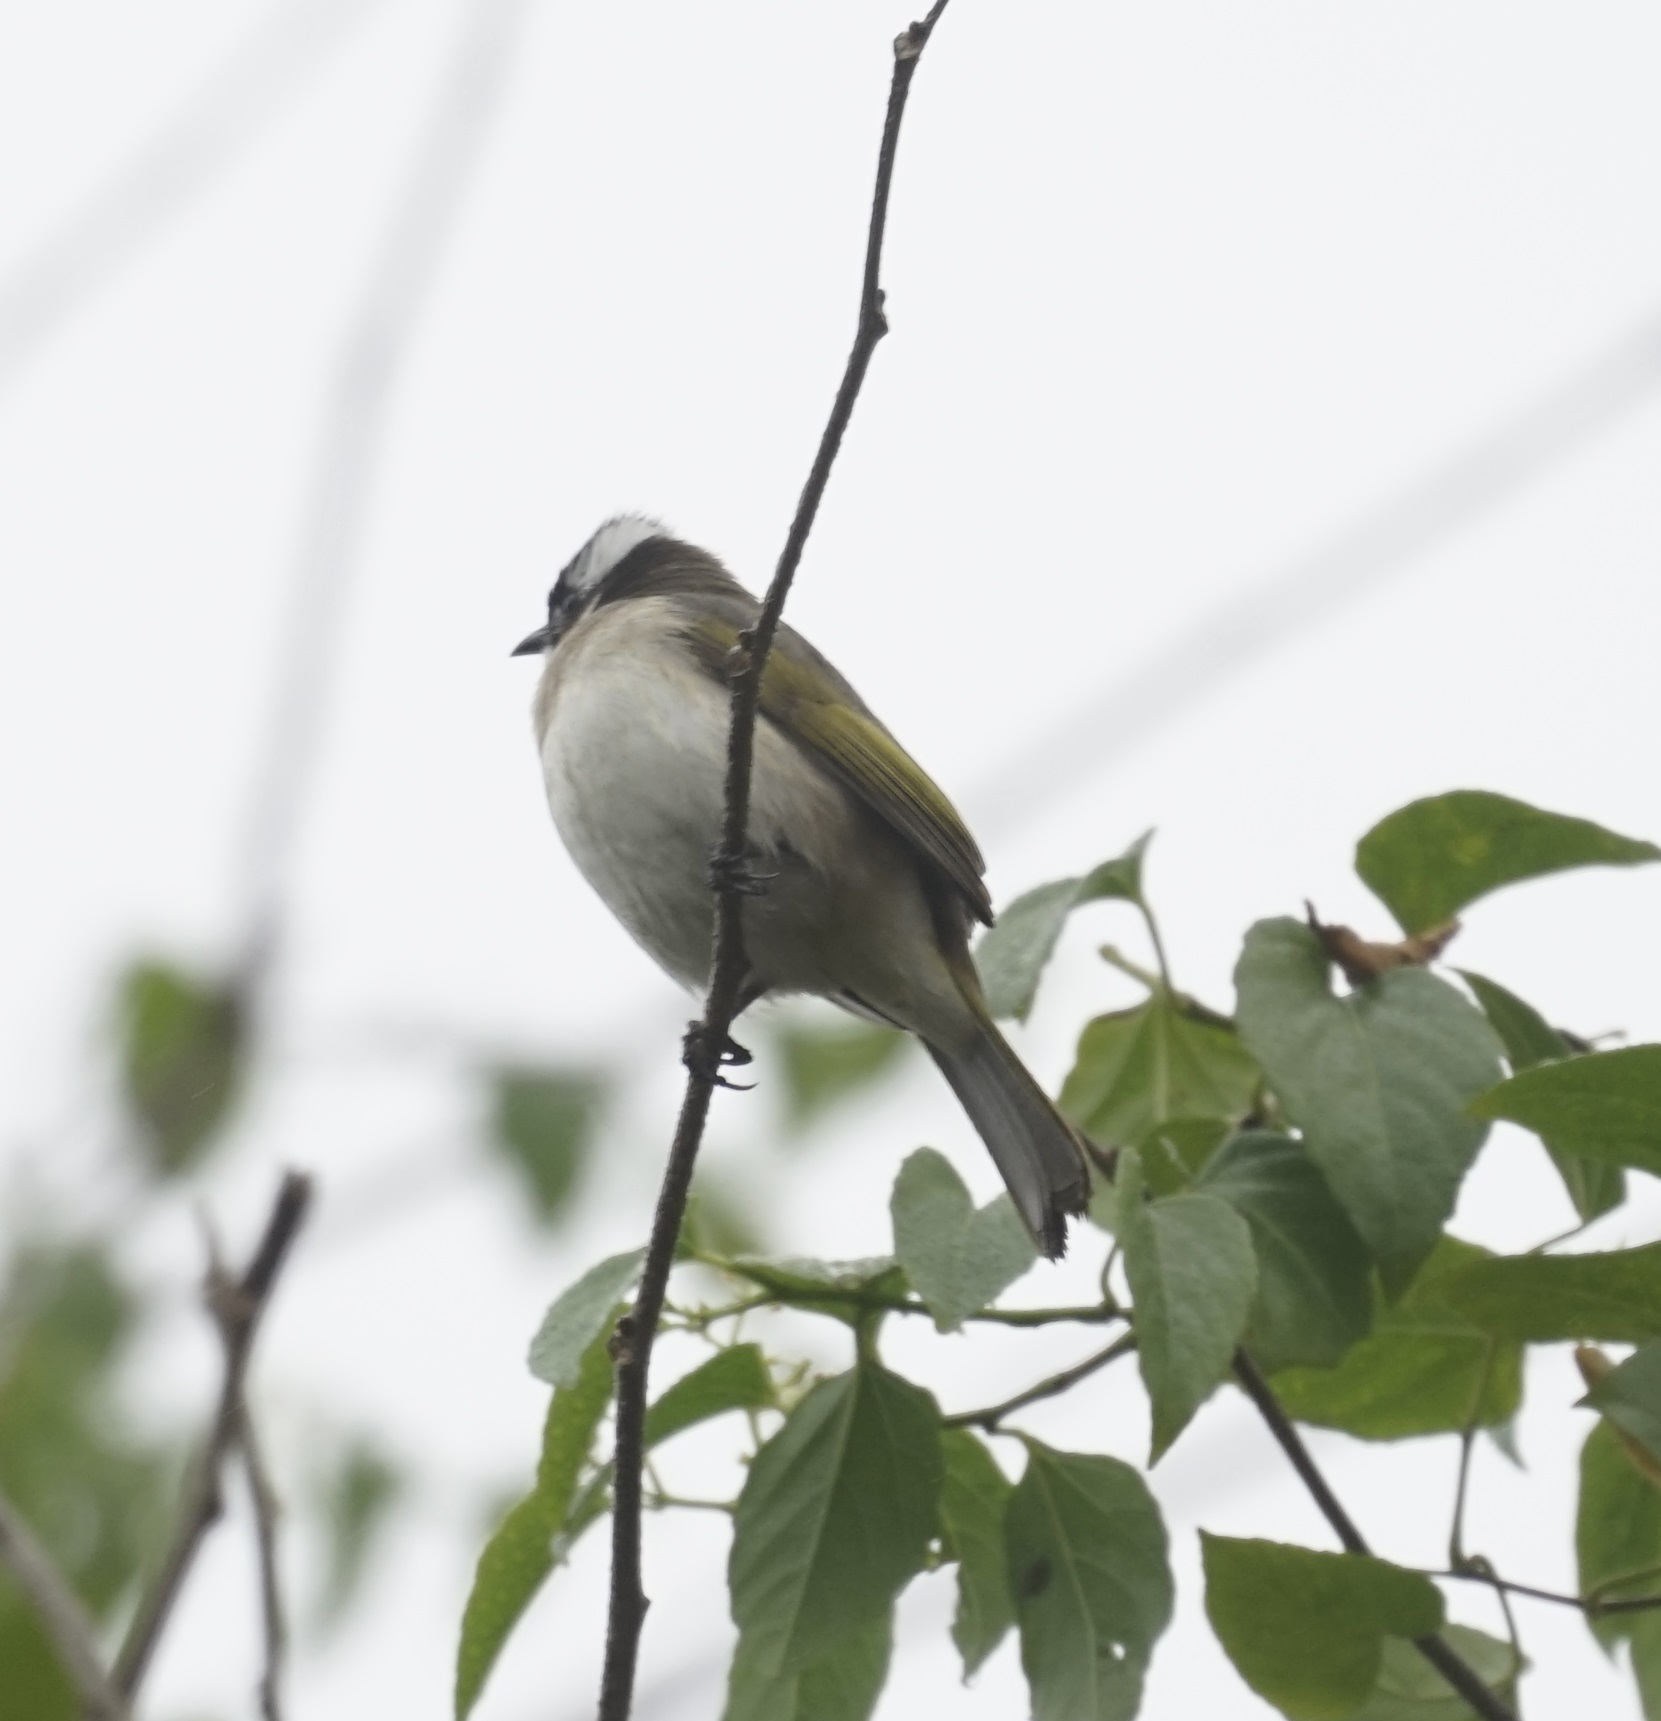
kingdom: Animalia
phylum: Chordata
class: Aves
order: Passeriformes
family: Pycnonotidae
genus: Pycnonotus
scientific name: Pycnonotus sinensis
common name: Light-vented bulbul
